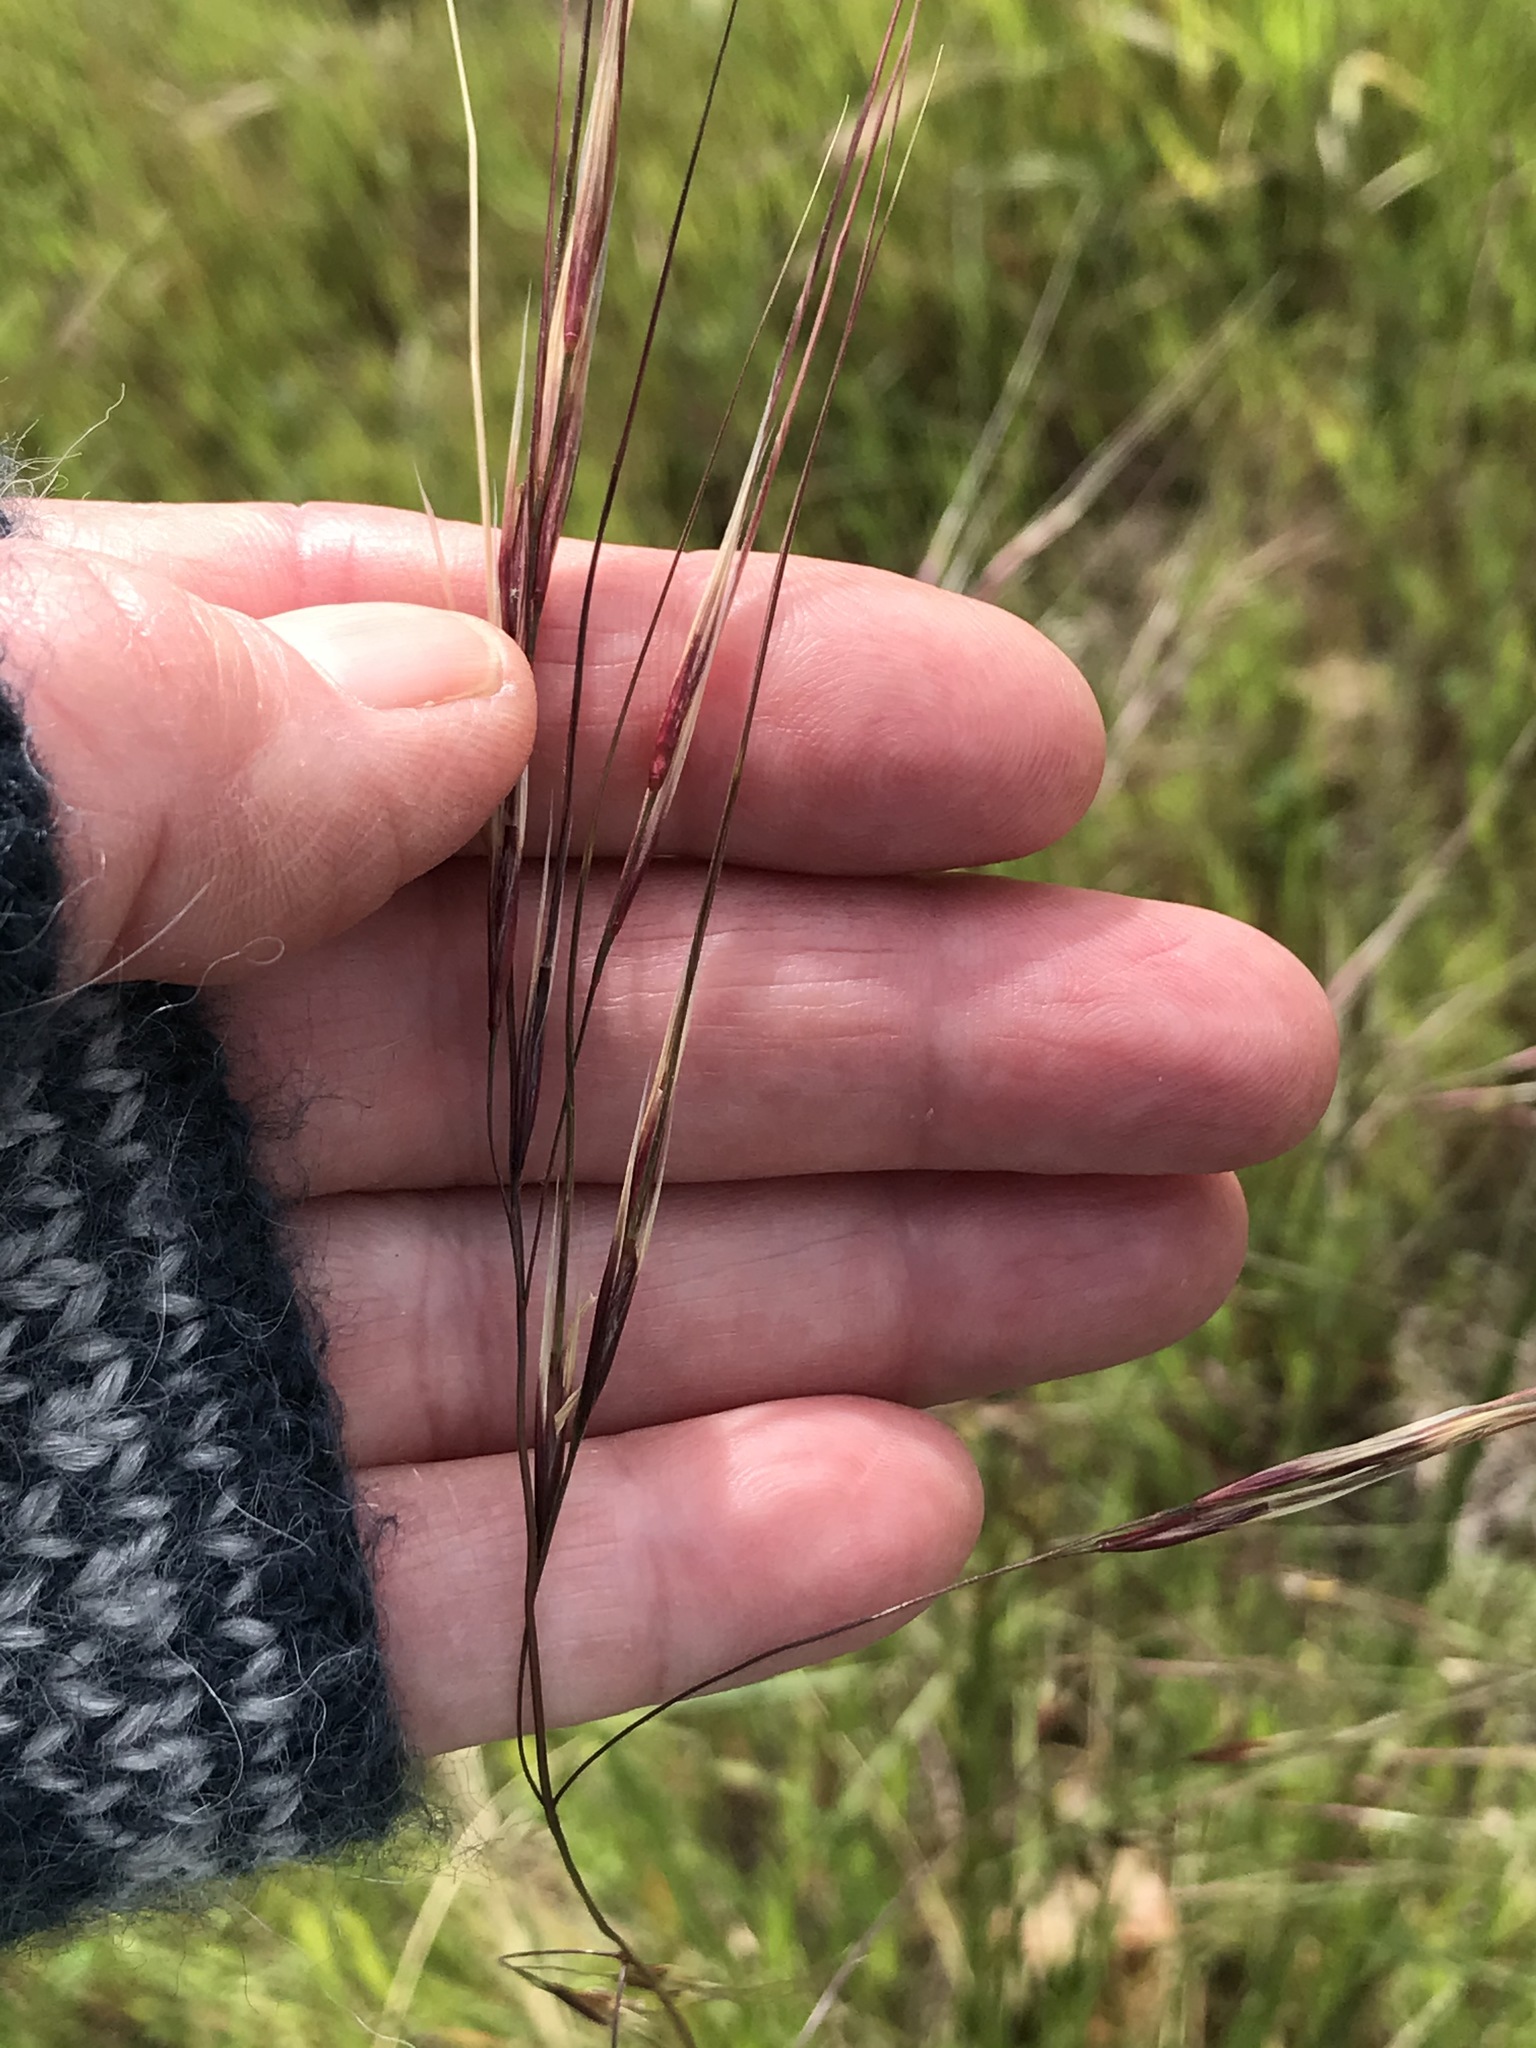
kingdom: Plantae
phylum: Tracheophyta
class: Liliopsida
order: Poales
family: Poaceae
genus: Nassella
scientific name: Nassella pulchra
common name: Purple needlegrass
